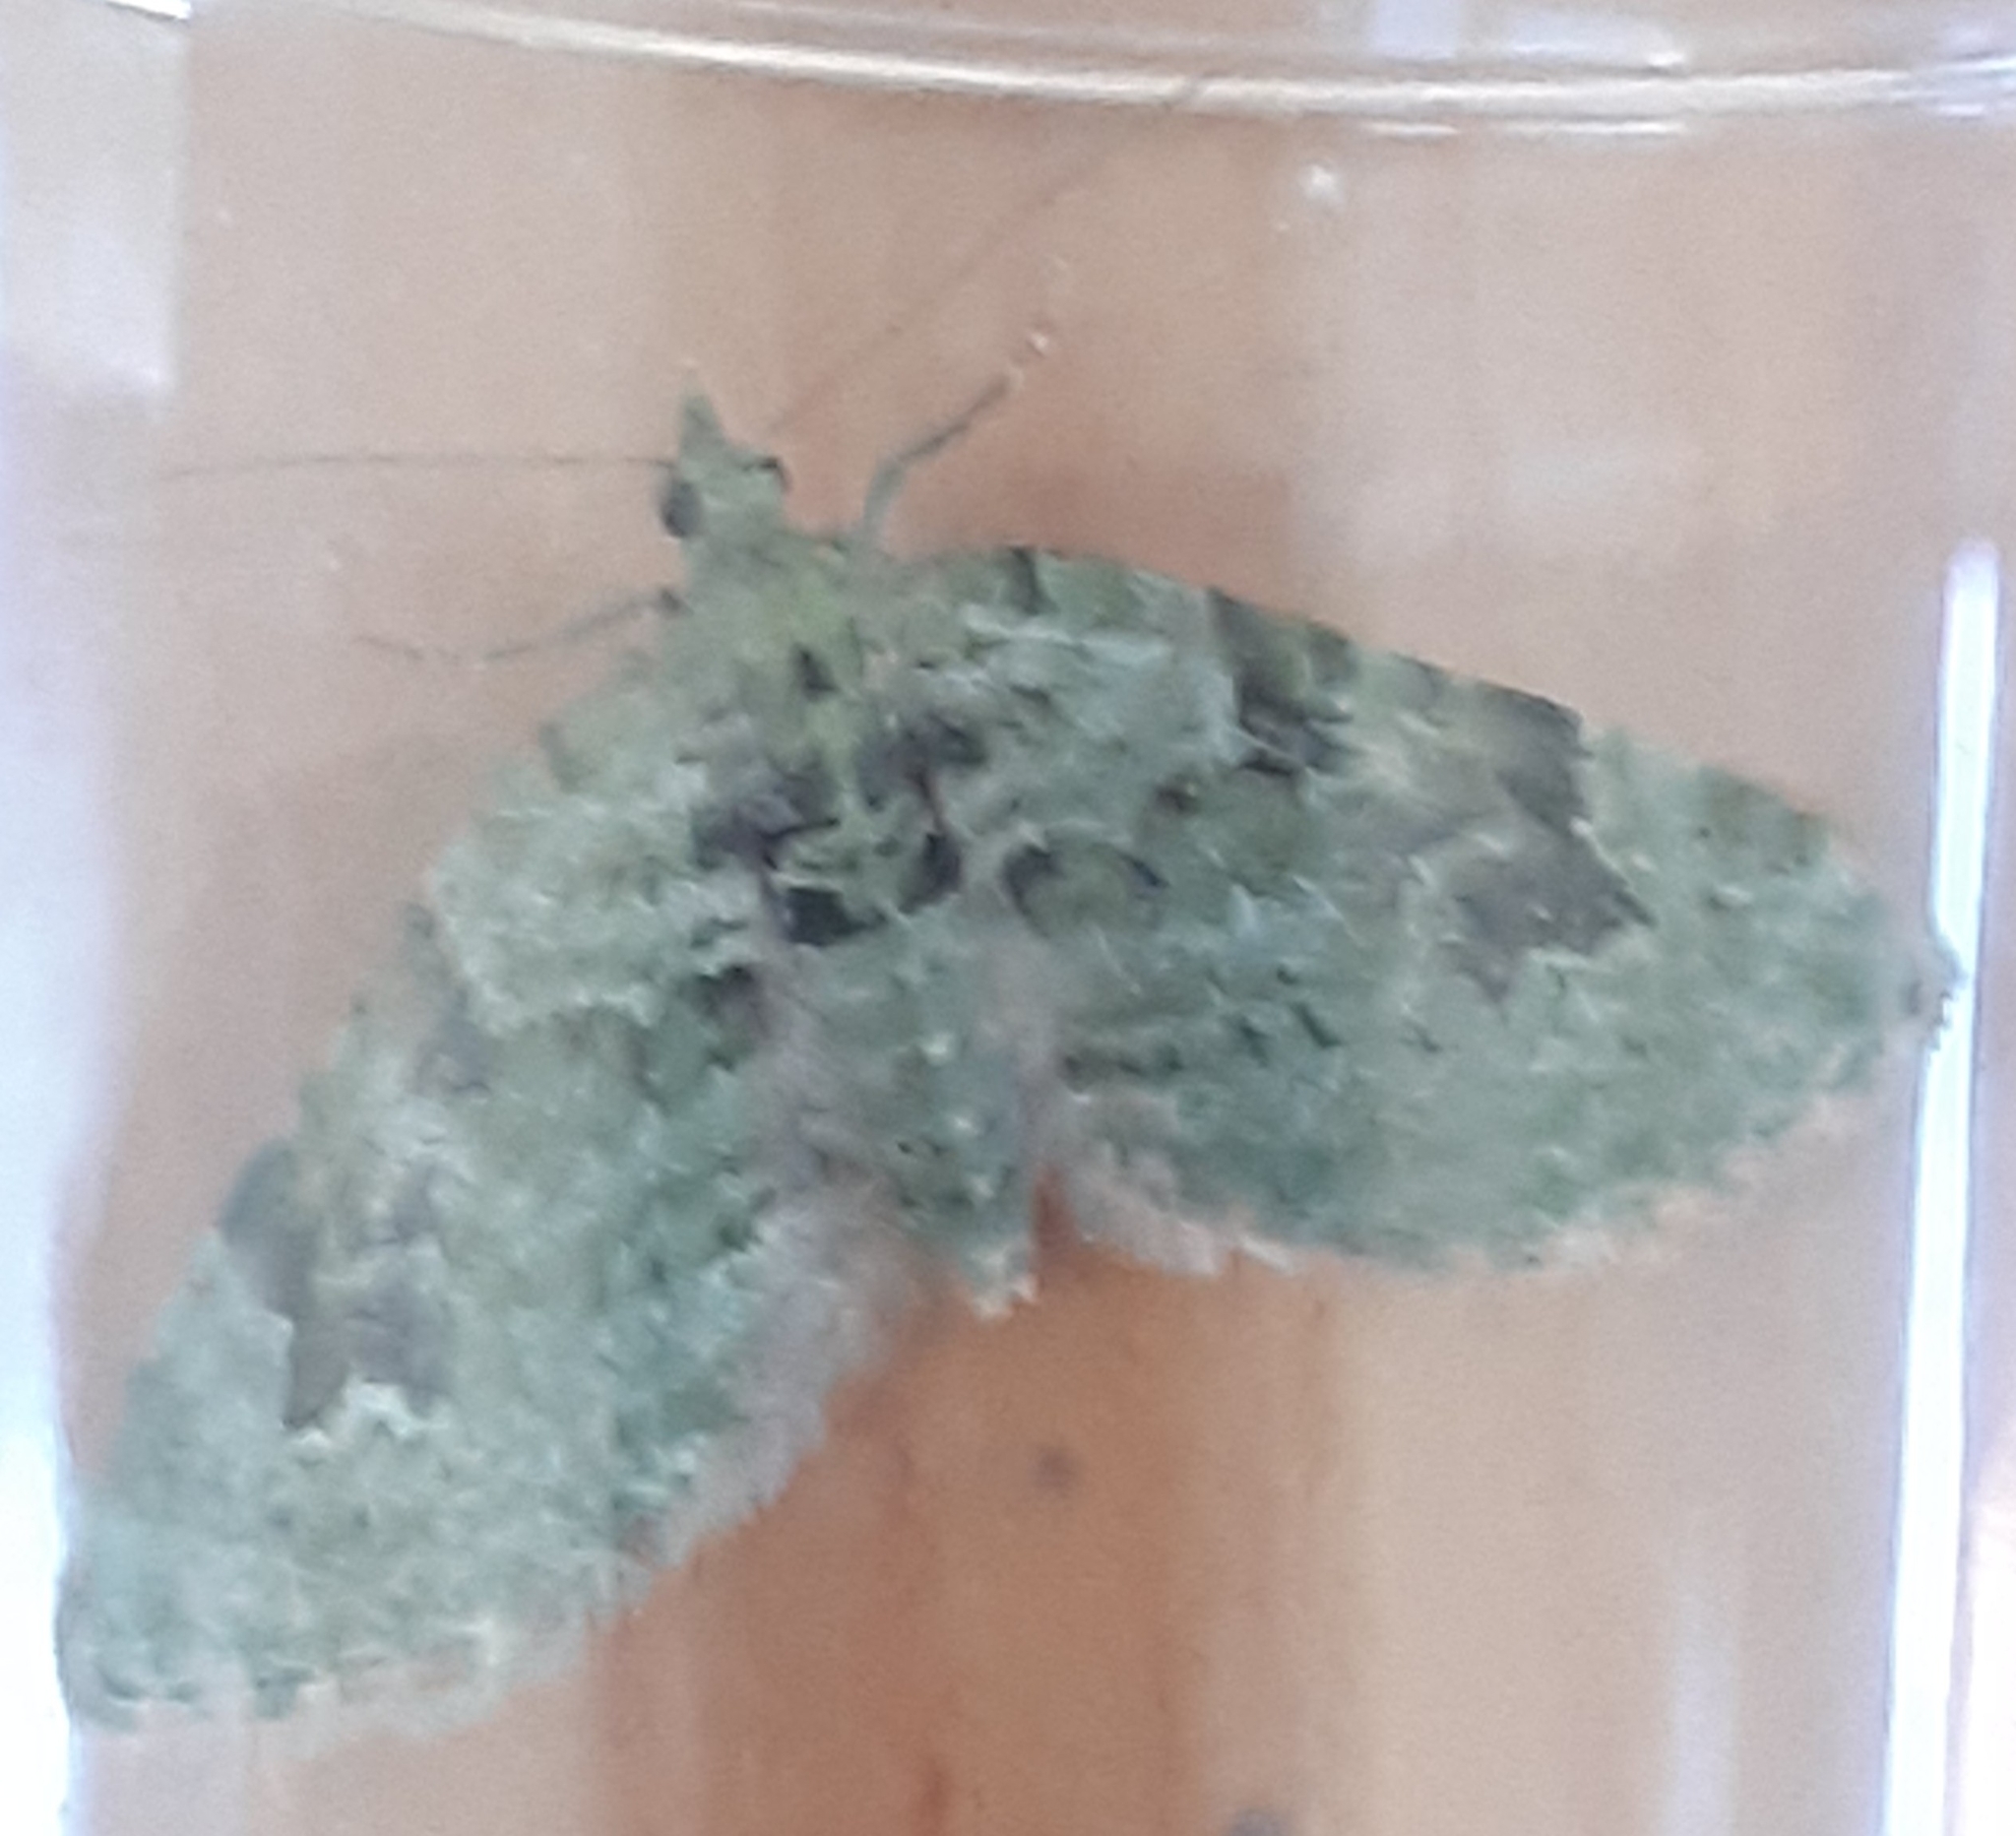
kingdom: Animalia
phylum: Arthropoda
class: Insecta
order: Lepidoptera
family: Geometridae
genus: Chloroclystis
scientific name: Chloroclystis v-ata
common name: V-pug
